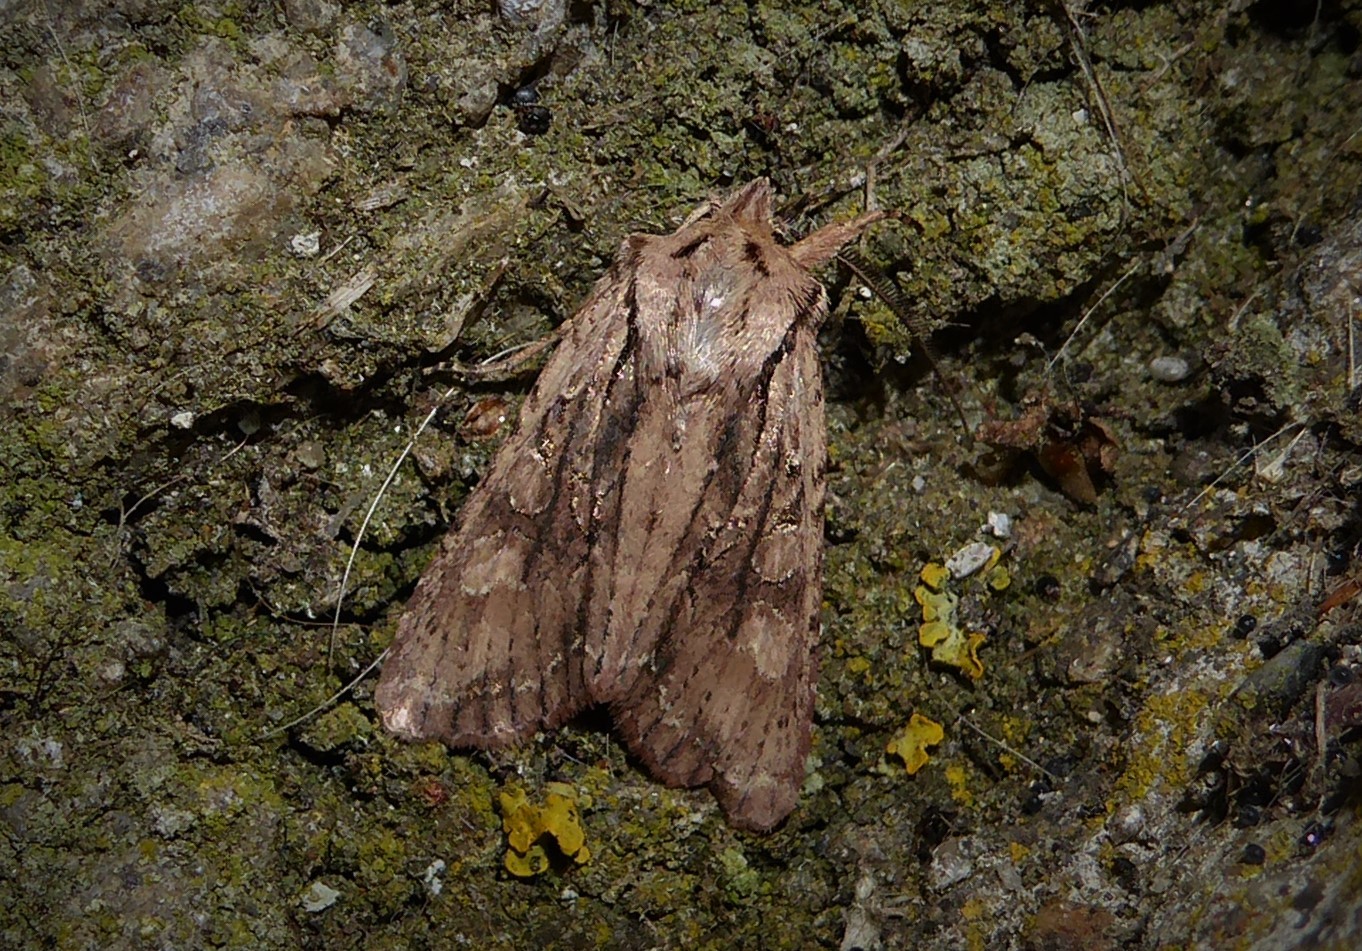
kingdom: Animalia
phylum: Arthropoda
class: Insecta
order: Lepidoptera
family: Noctuidae
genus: Ichneutica
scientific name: Ichneutica
